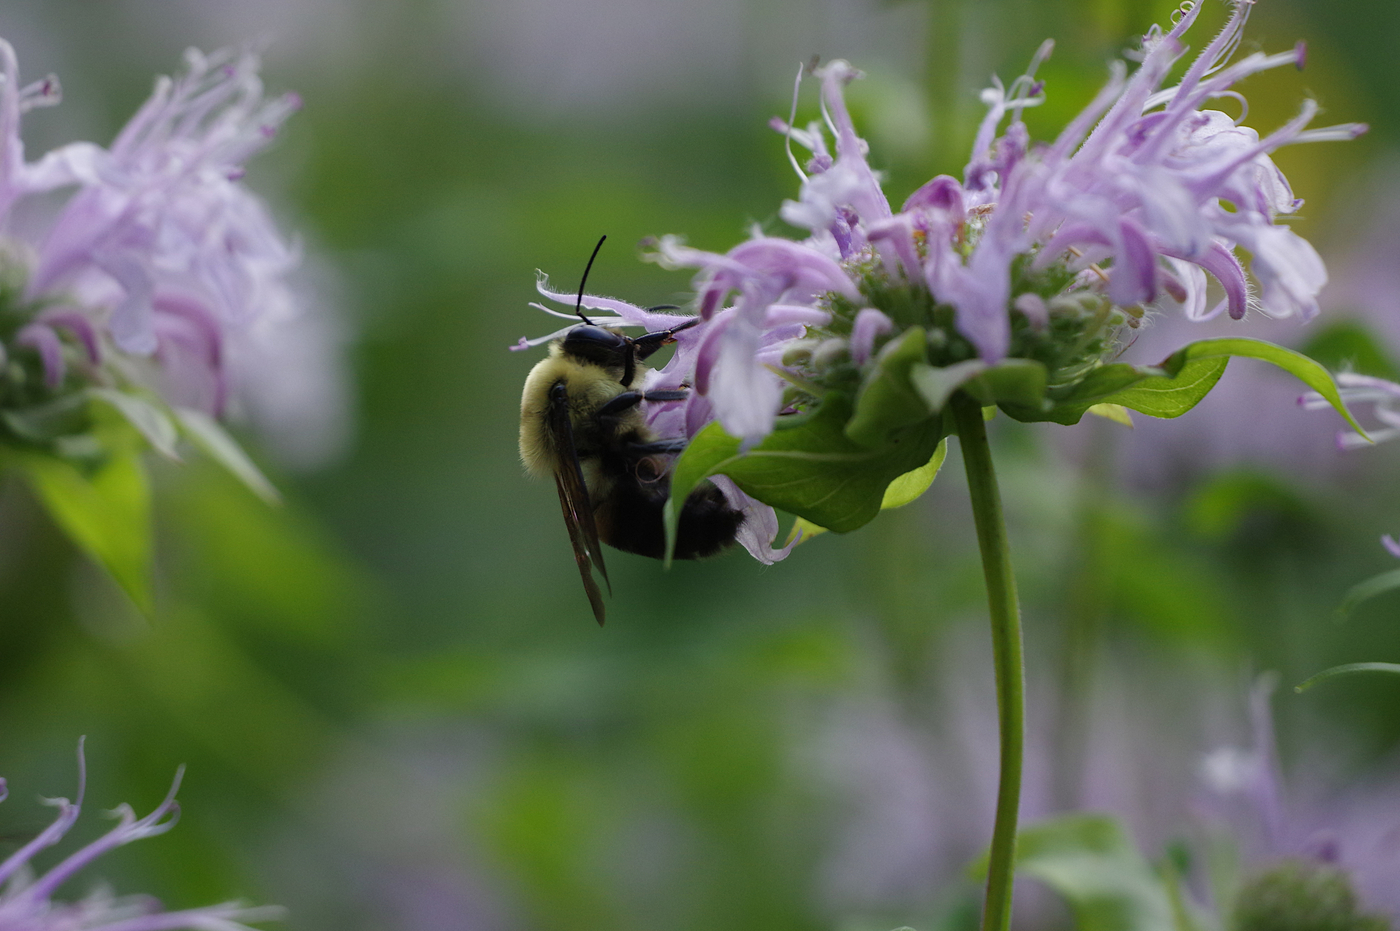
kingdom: Animalia
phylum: Arthropoda
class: Insecta
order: Hymenoptera
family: Apidae
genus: Bombus
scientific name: Bombus griseocollis
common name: Brown-belted bumble bee
